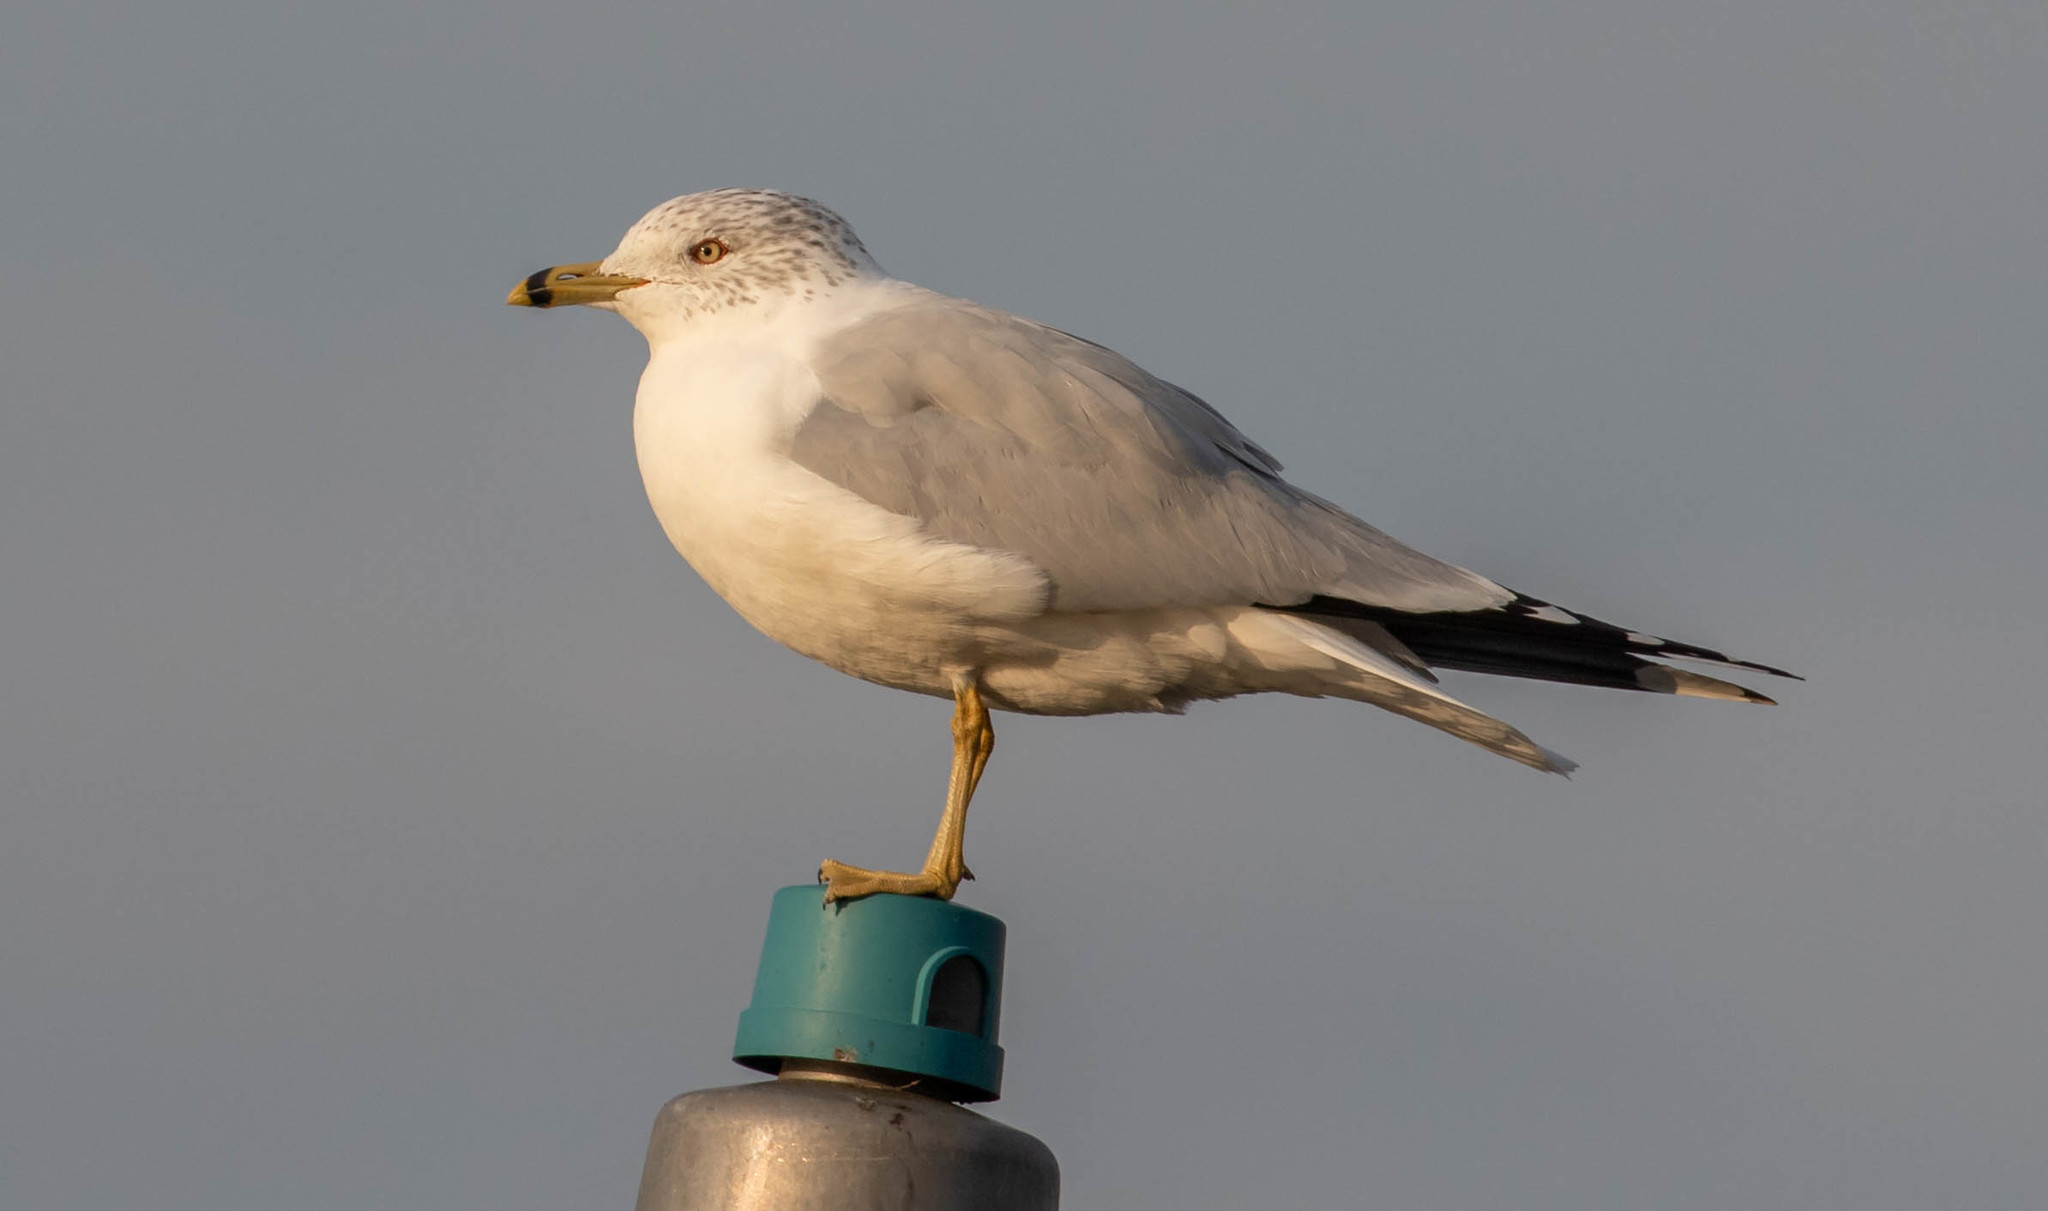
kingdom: Animalia
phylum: Chordata
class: Aves
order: Charadriiformes
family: Laridae
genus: Larus
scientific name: Larus delawarensis
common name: Ring-billed gull
